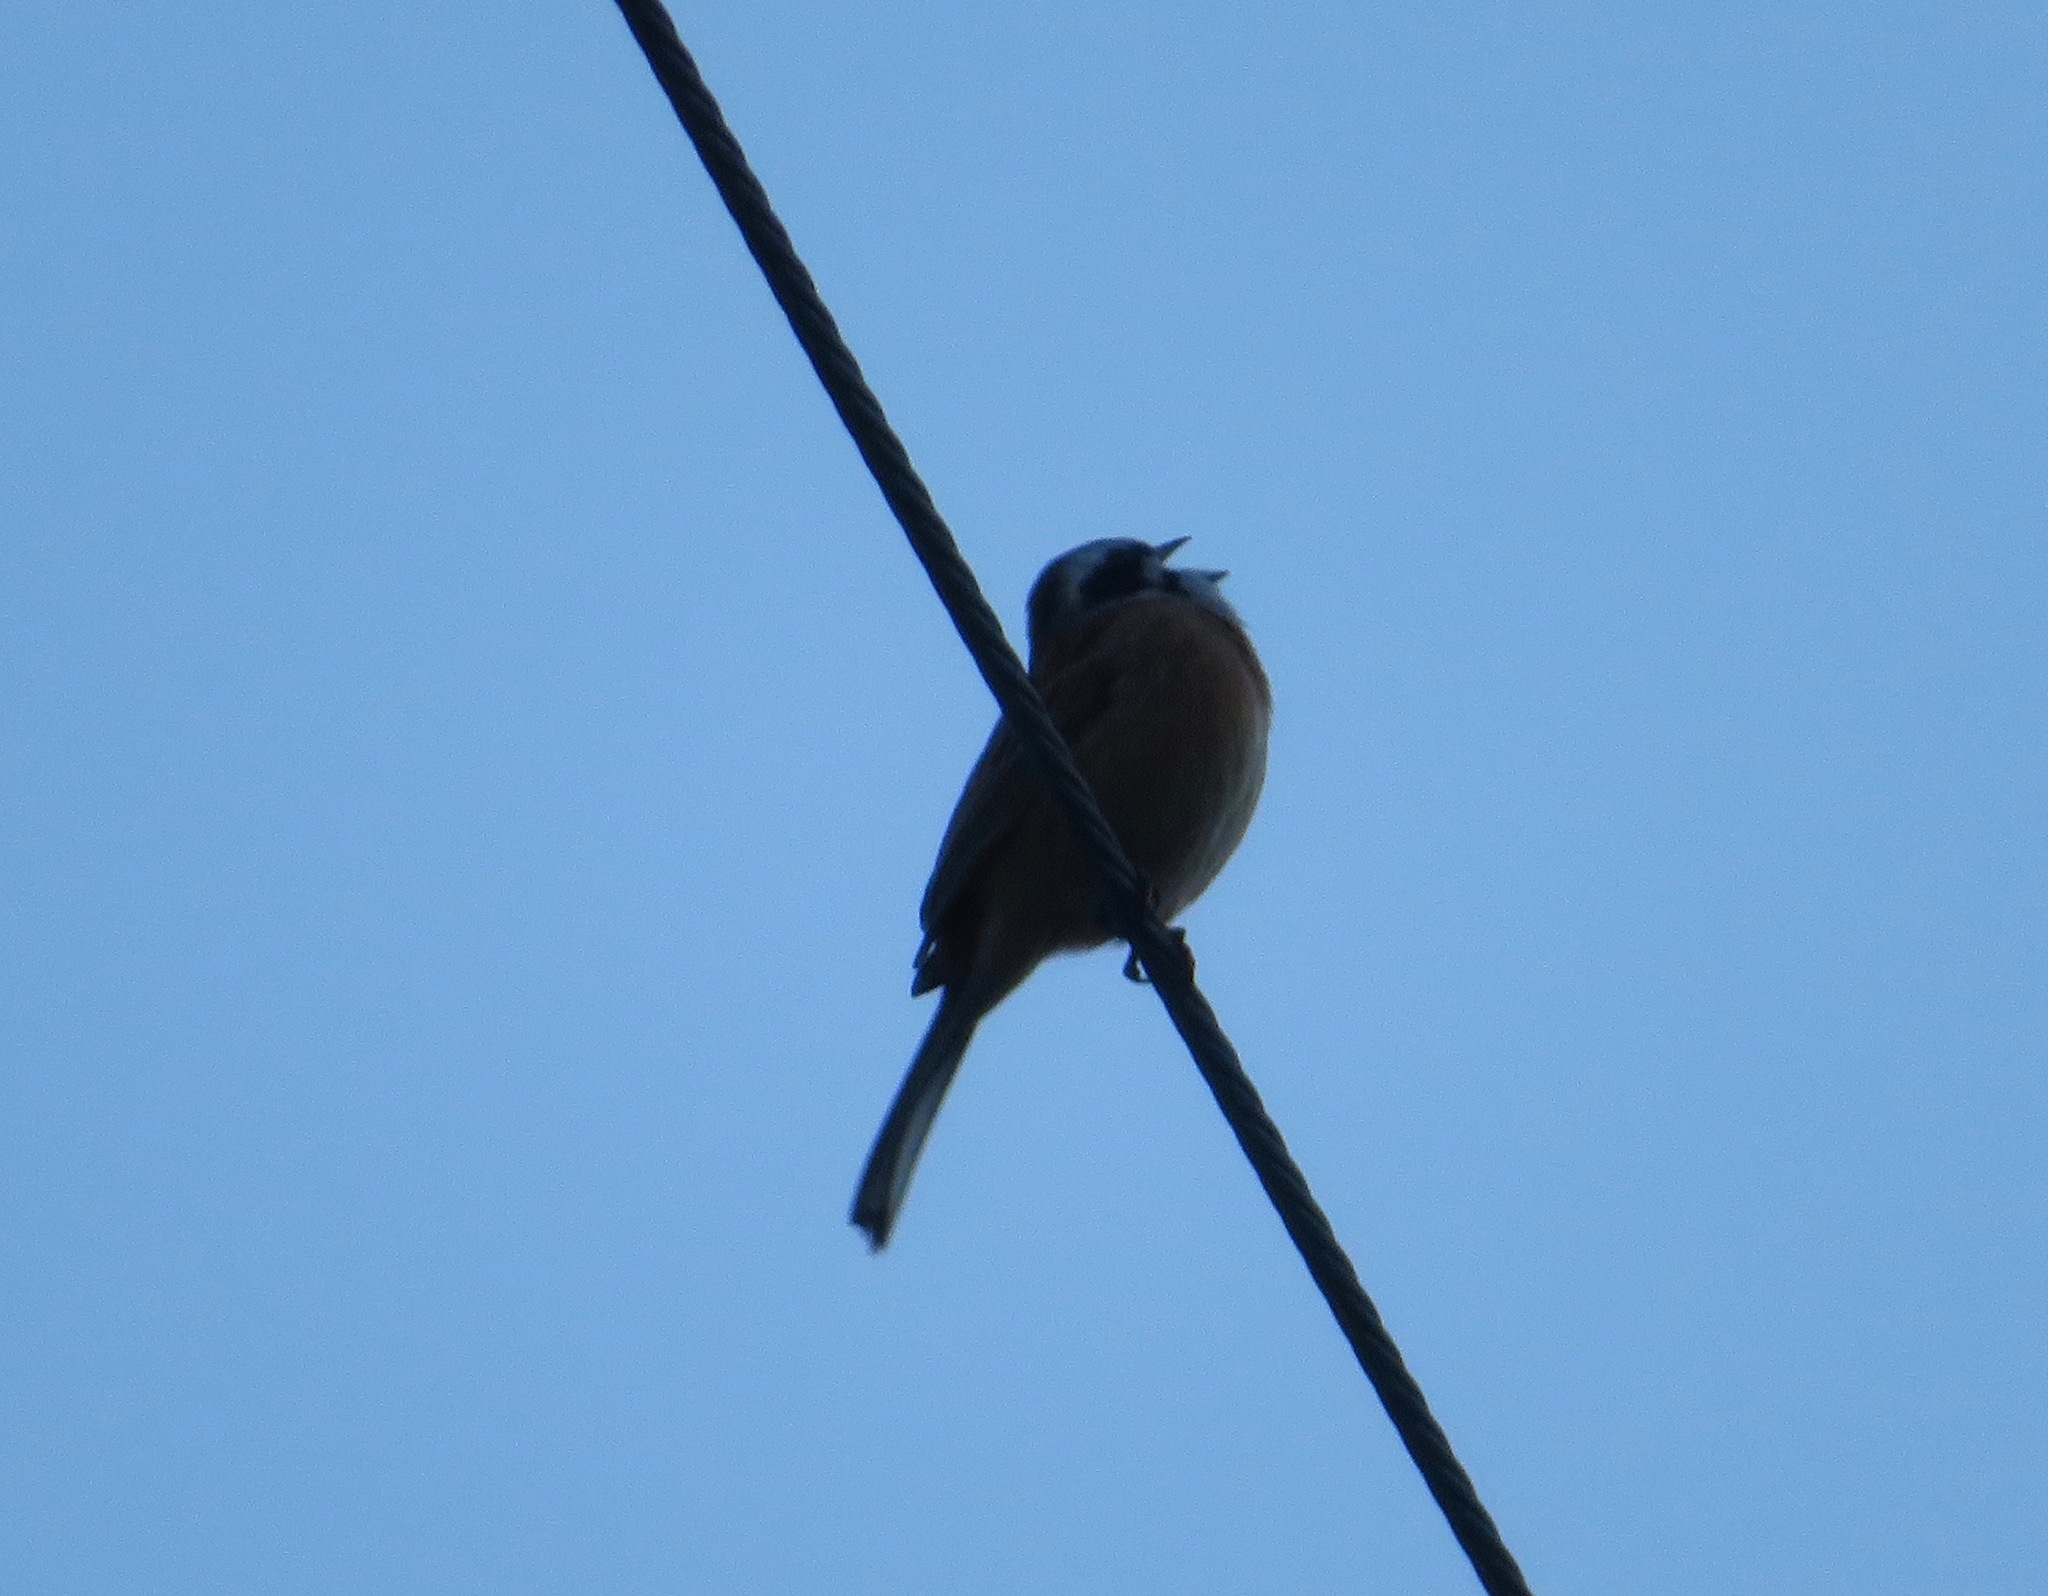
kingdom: Animalia
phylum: Chordata
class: Aves
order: Passeriformes
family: Emberizidae
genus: Emberiza
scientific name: Emberiza cioides
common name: Meadow bunting
